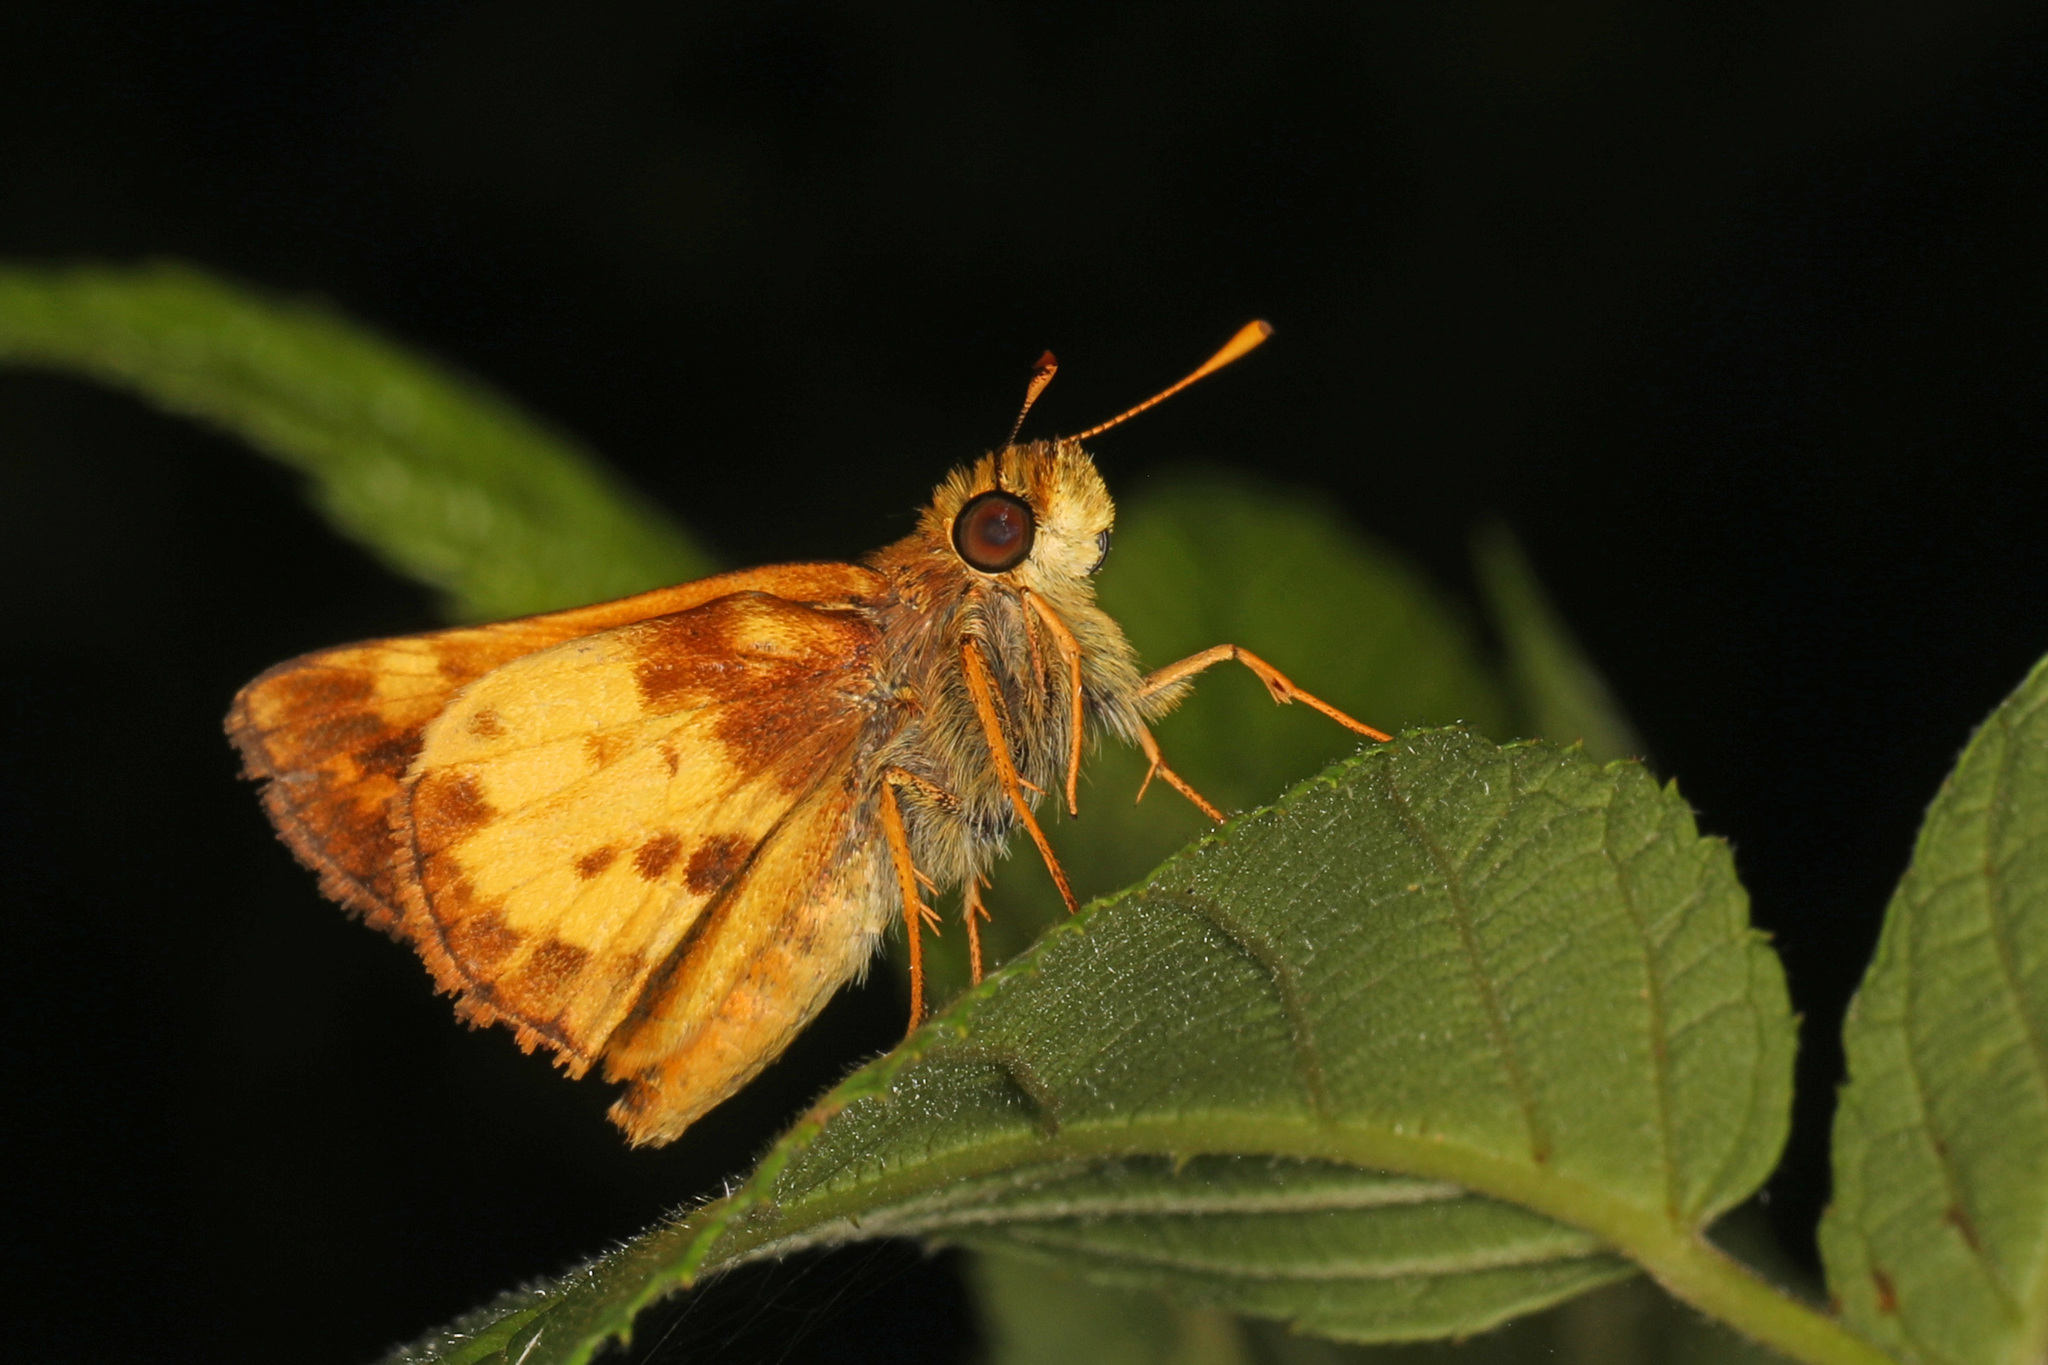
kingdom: Animalia
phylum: Arthropoda
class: Insecta
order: Lepidoptera
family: Hesperiidae
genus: Lon
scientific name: Lon zabulon
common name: Zabulon skipper
